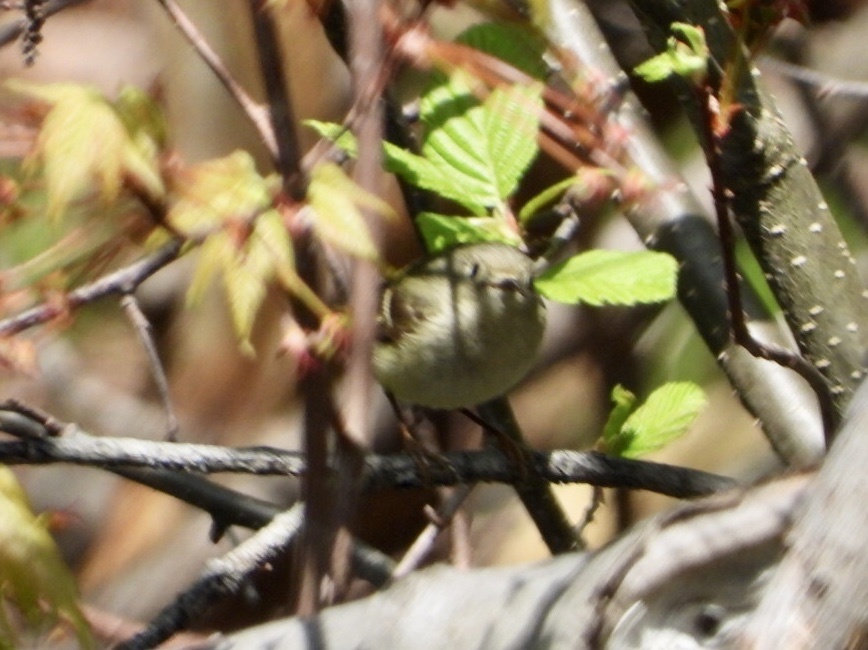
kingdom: Animalia
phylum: Chordata
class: Aves
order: Passeriformes
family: Regulidae
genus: Regulus
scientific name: Regulus calendula
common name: Ruby-crowned kinglet
